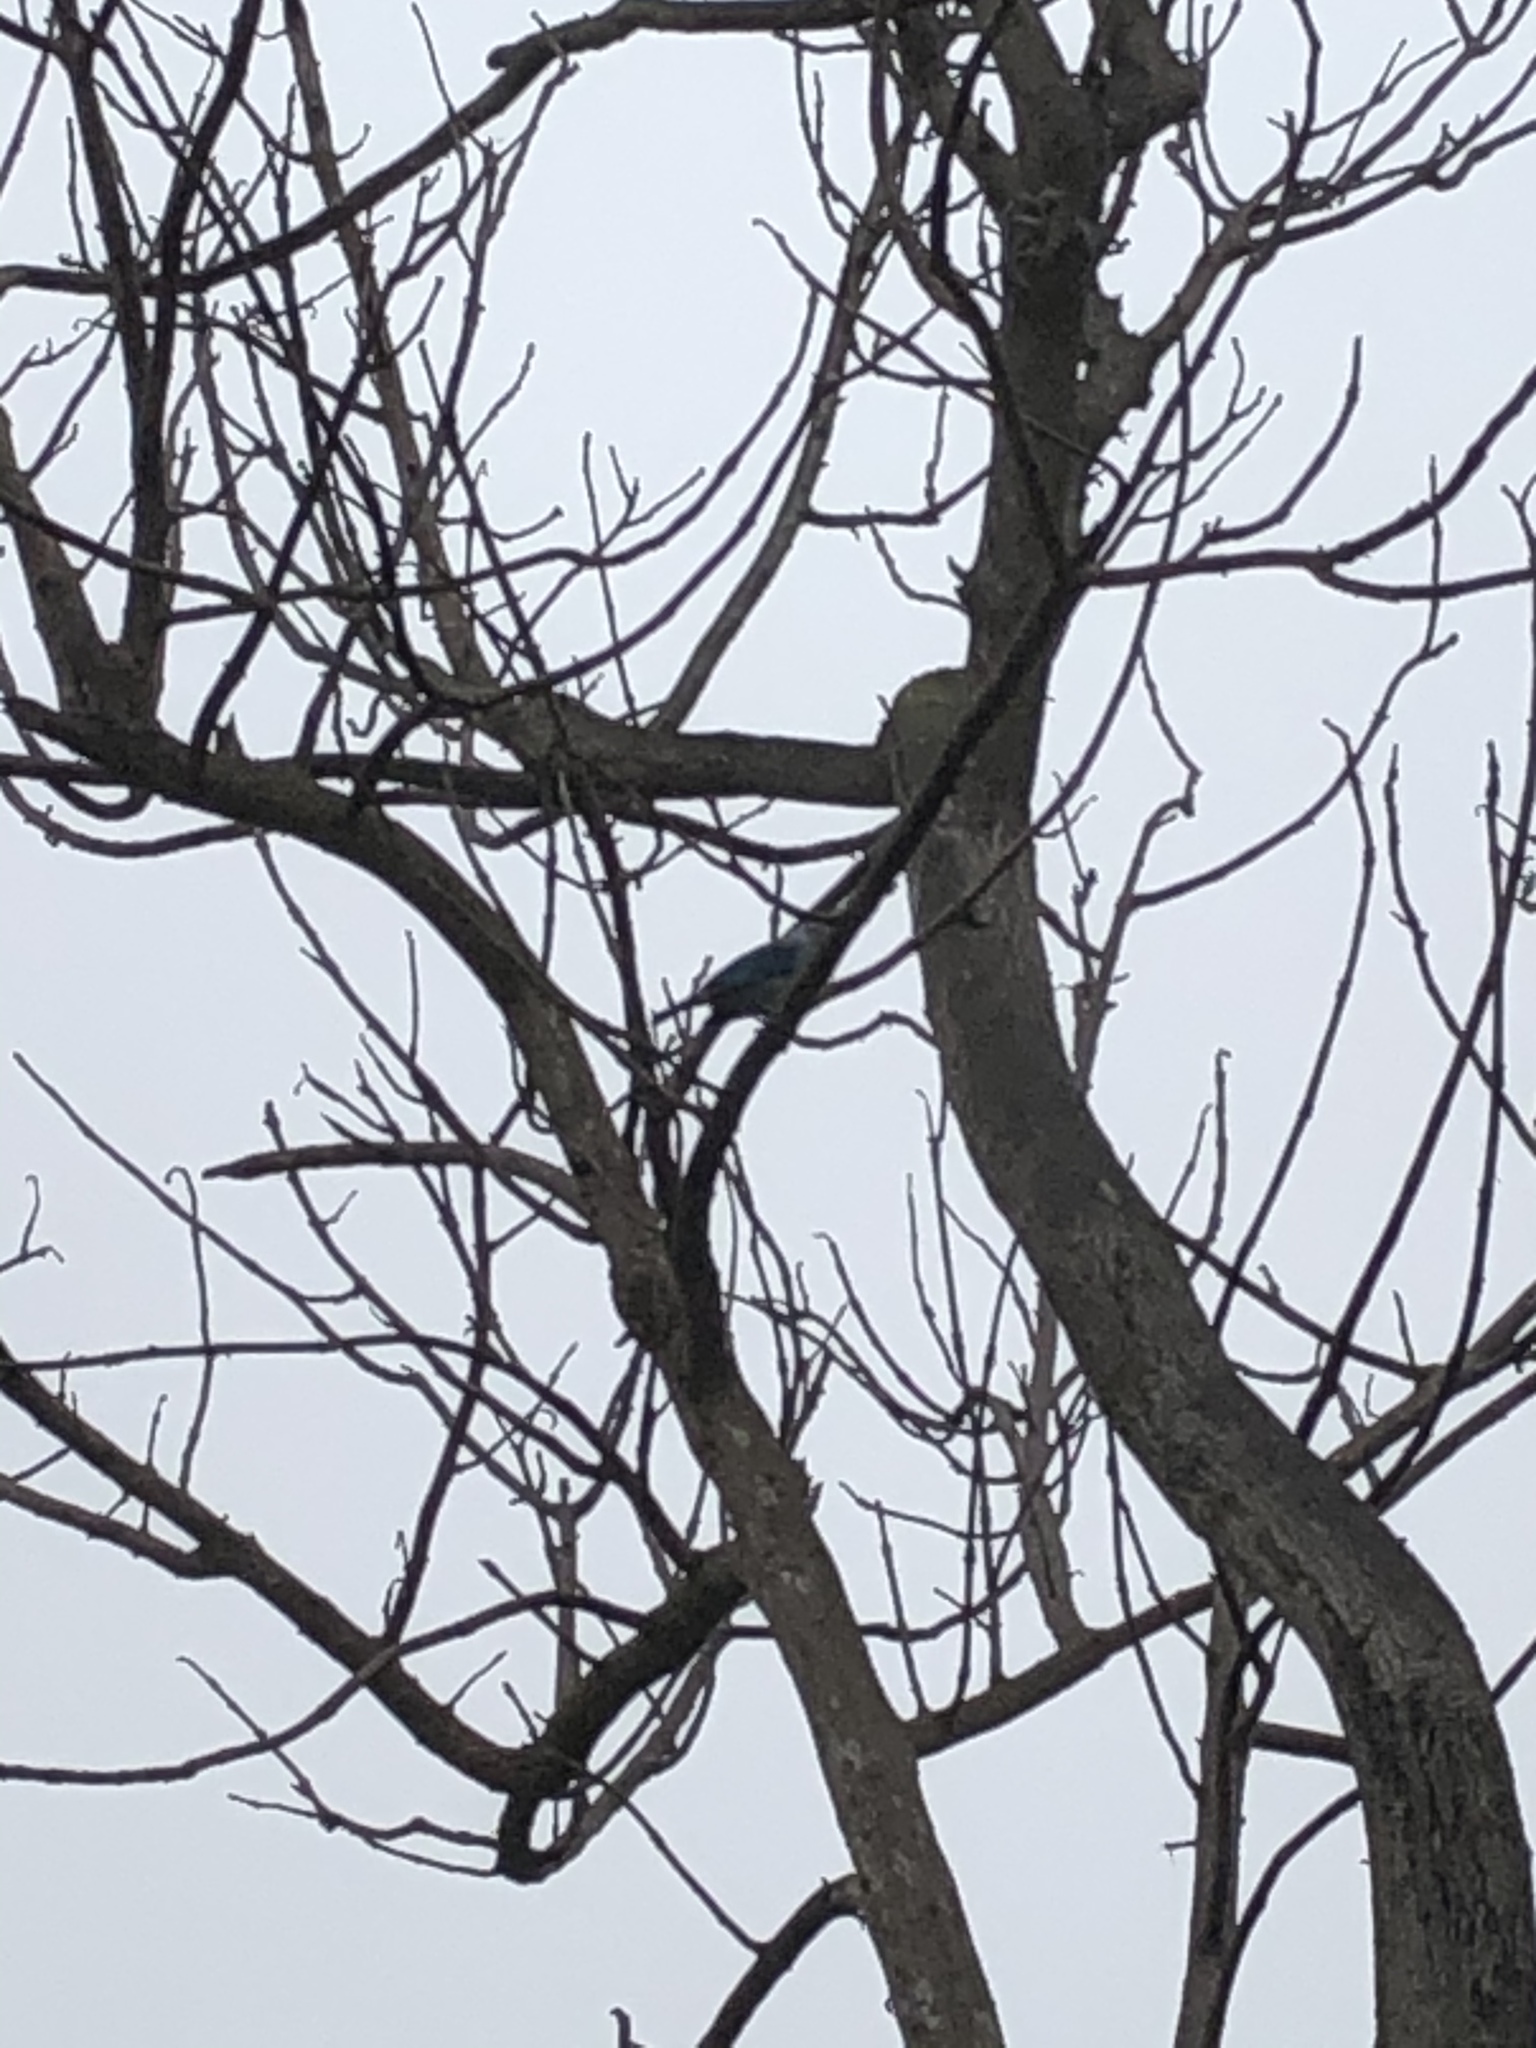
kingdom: Animalia
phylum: Chordata
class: Aves
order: Passeriformes
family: Thraupidae
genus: Thraupis
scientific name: Thraupis episcopus
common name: Blue-grey tanager
